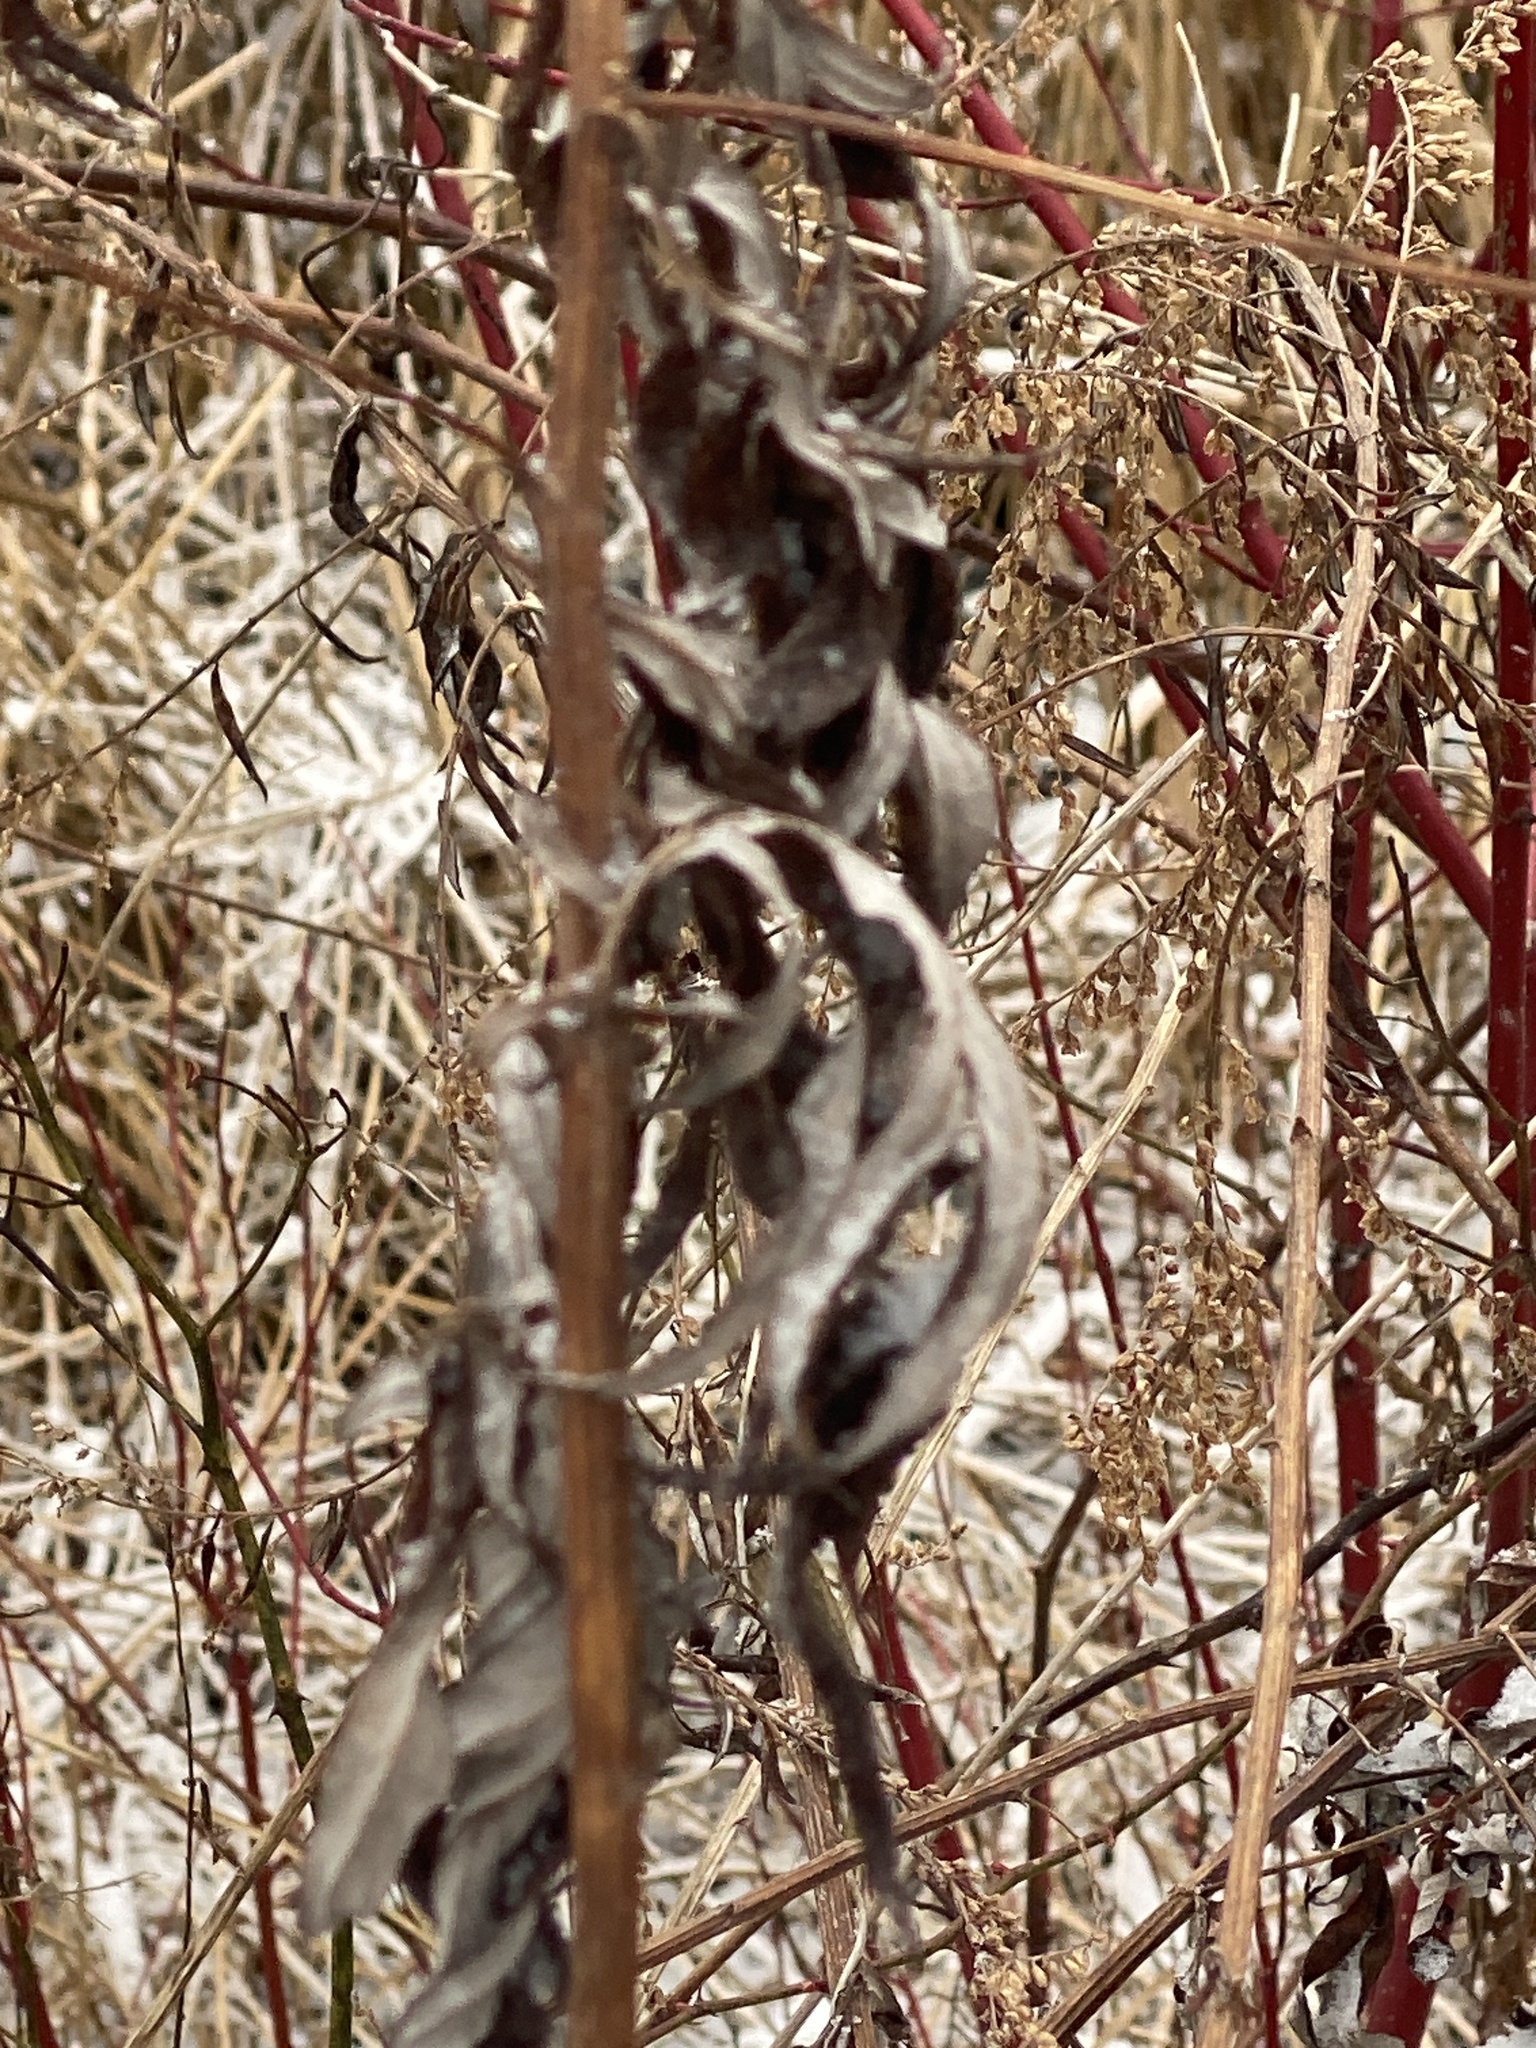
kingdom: Plantae
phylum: Tracheophyta
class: Magnoliopsida
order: Asterales
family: Asteraceae
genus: Artemisia
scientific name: Artemisia vulgaris
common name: Mugwort
